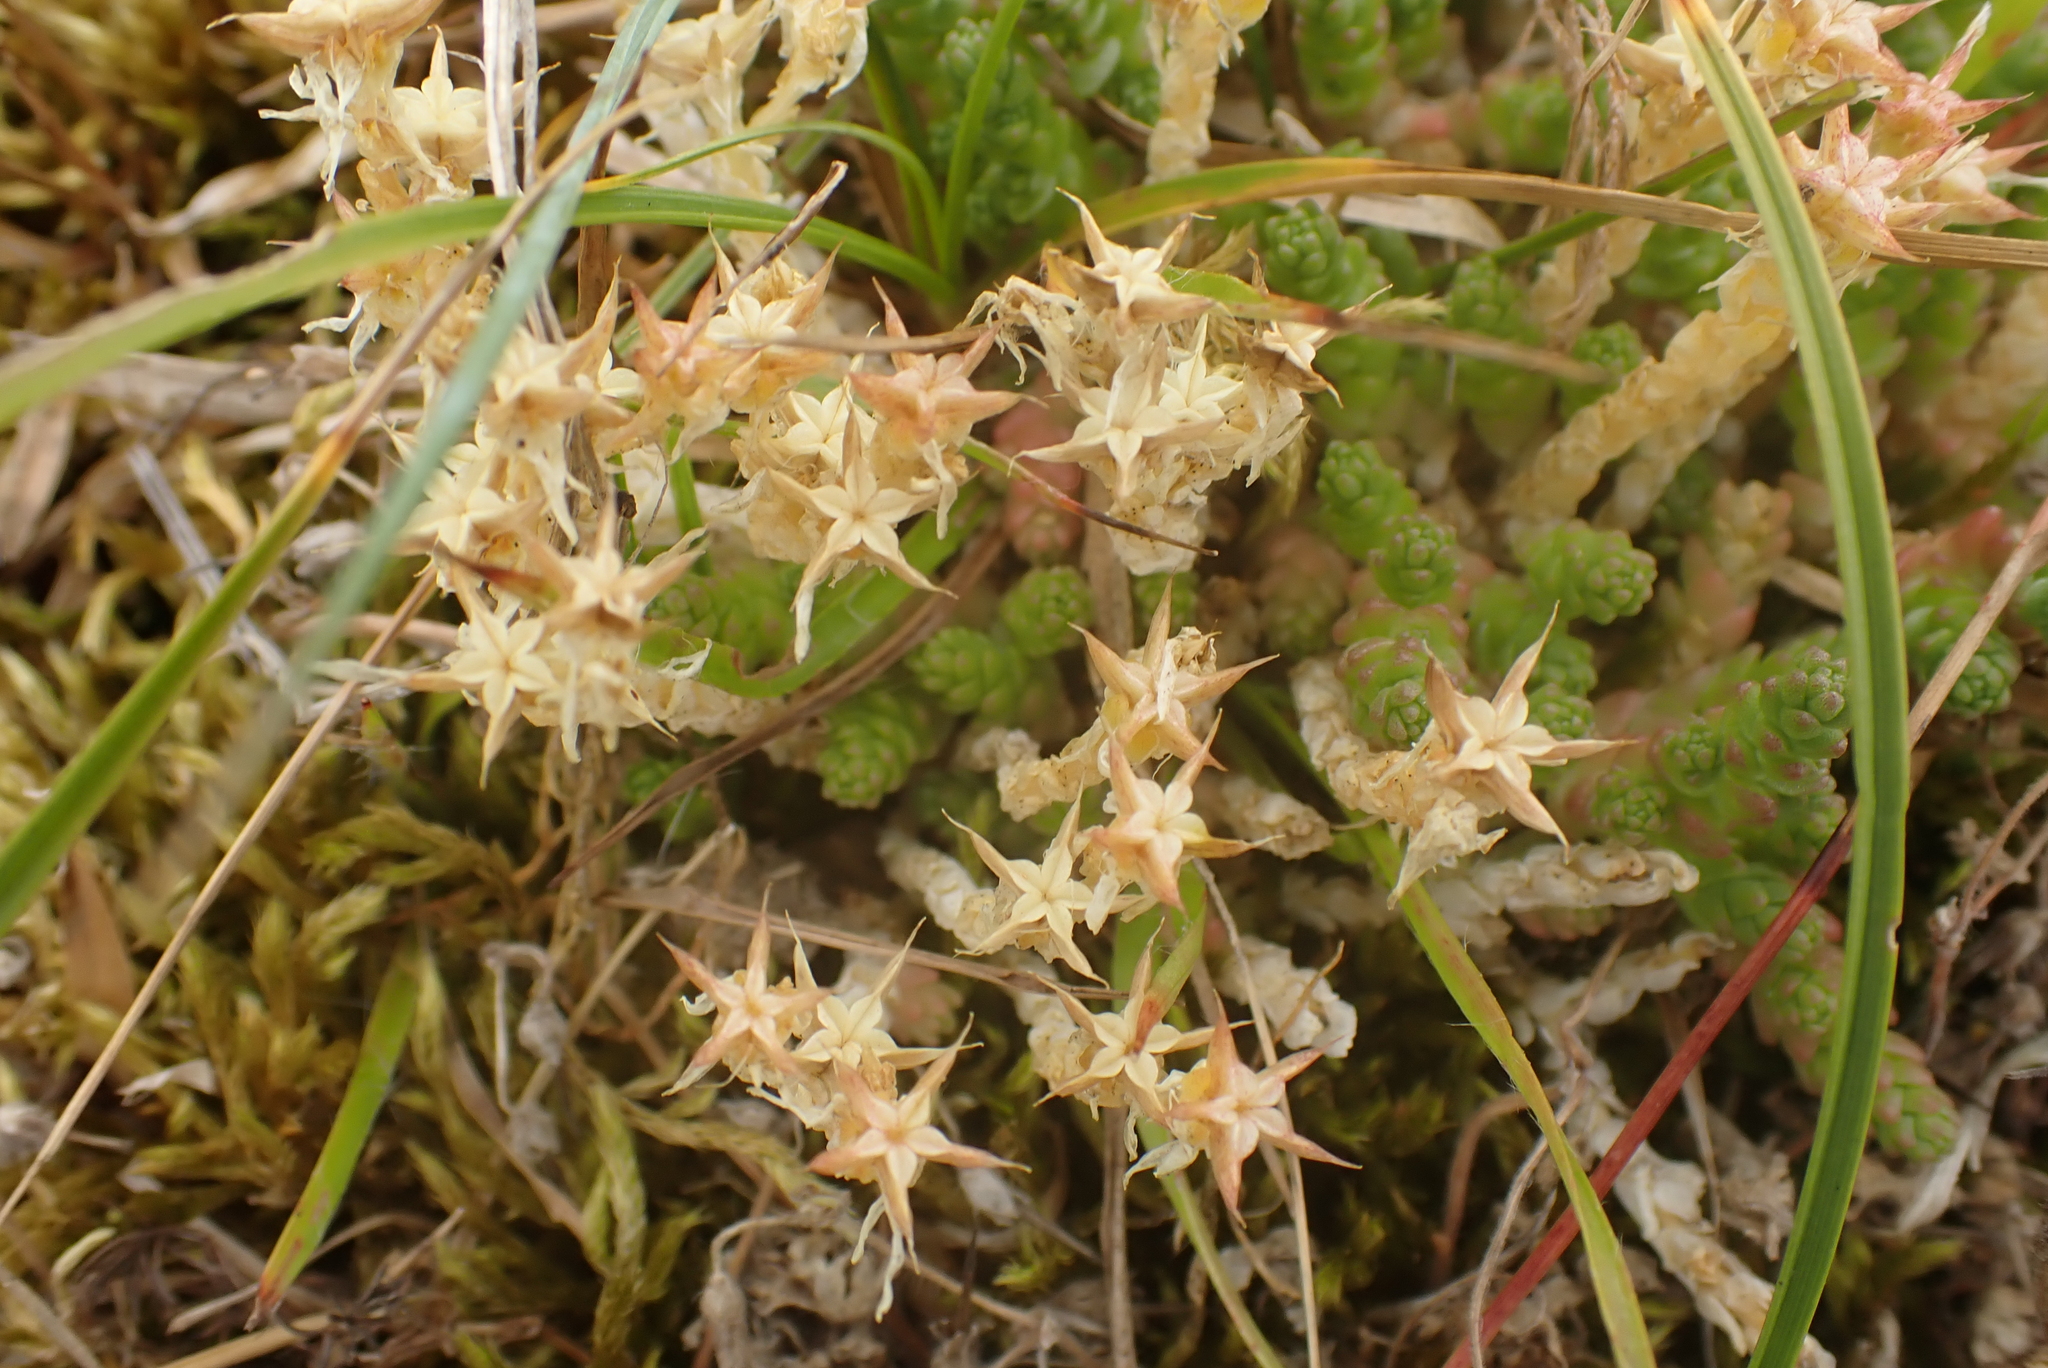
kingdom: Plantae
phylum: Tracheophyta
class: Magnoliopsida
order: Saxifragales
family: Crassulaceae
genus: Sedum
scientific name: Sedum acre
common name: Biting stonecrop
